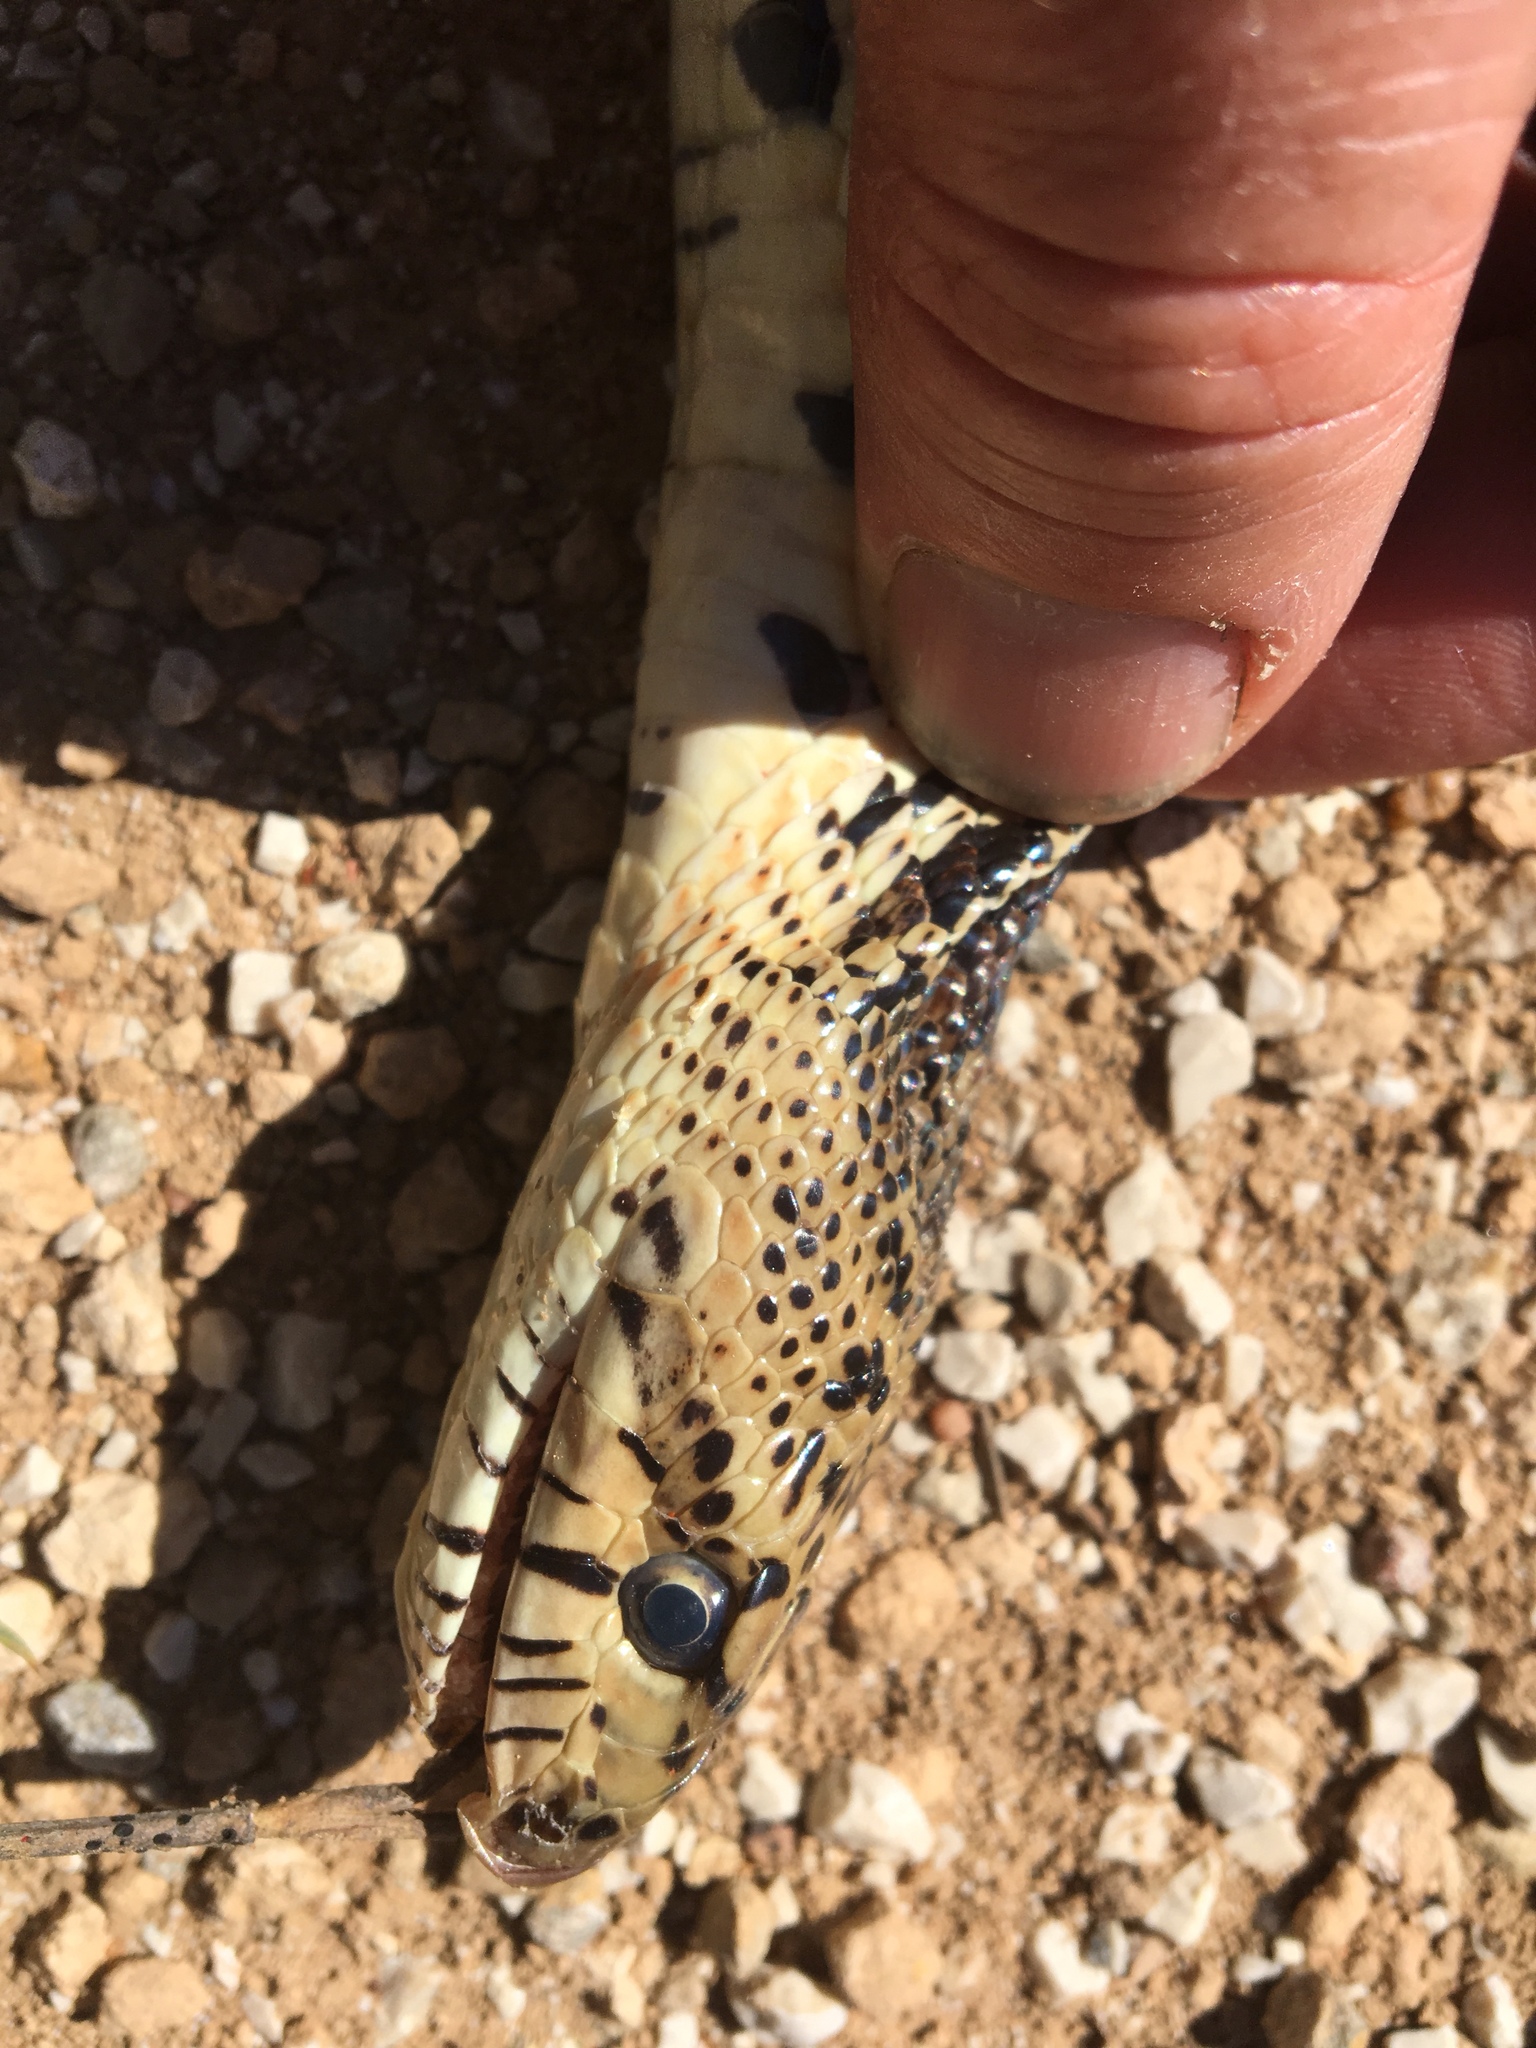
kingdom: Animalia
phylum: Chordata
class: Squamata
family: Colubridae
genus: Pituophis
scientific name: Pituophis catenifer
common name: Gopher snake
